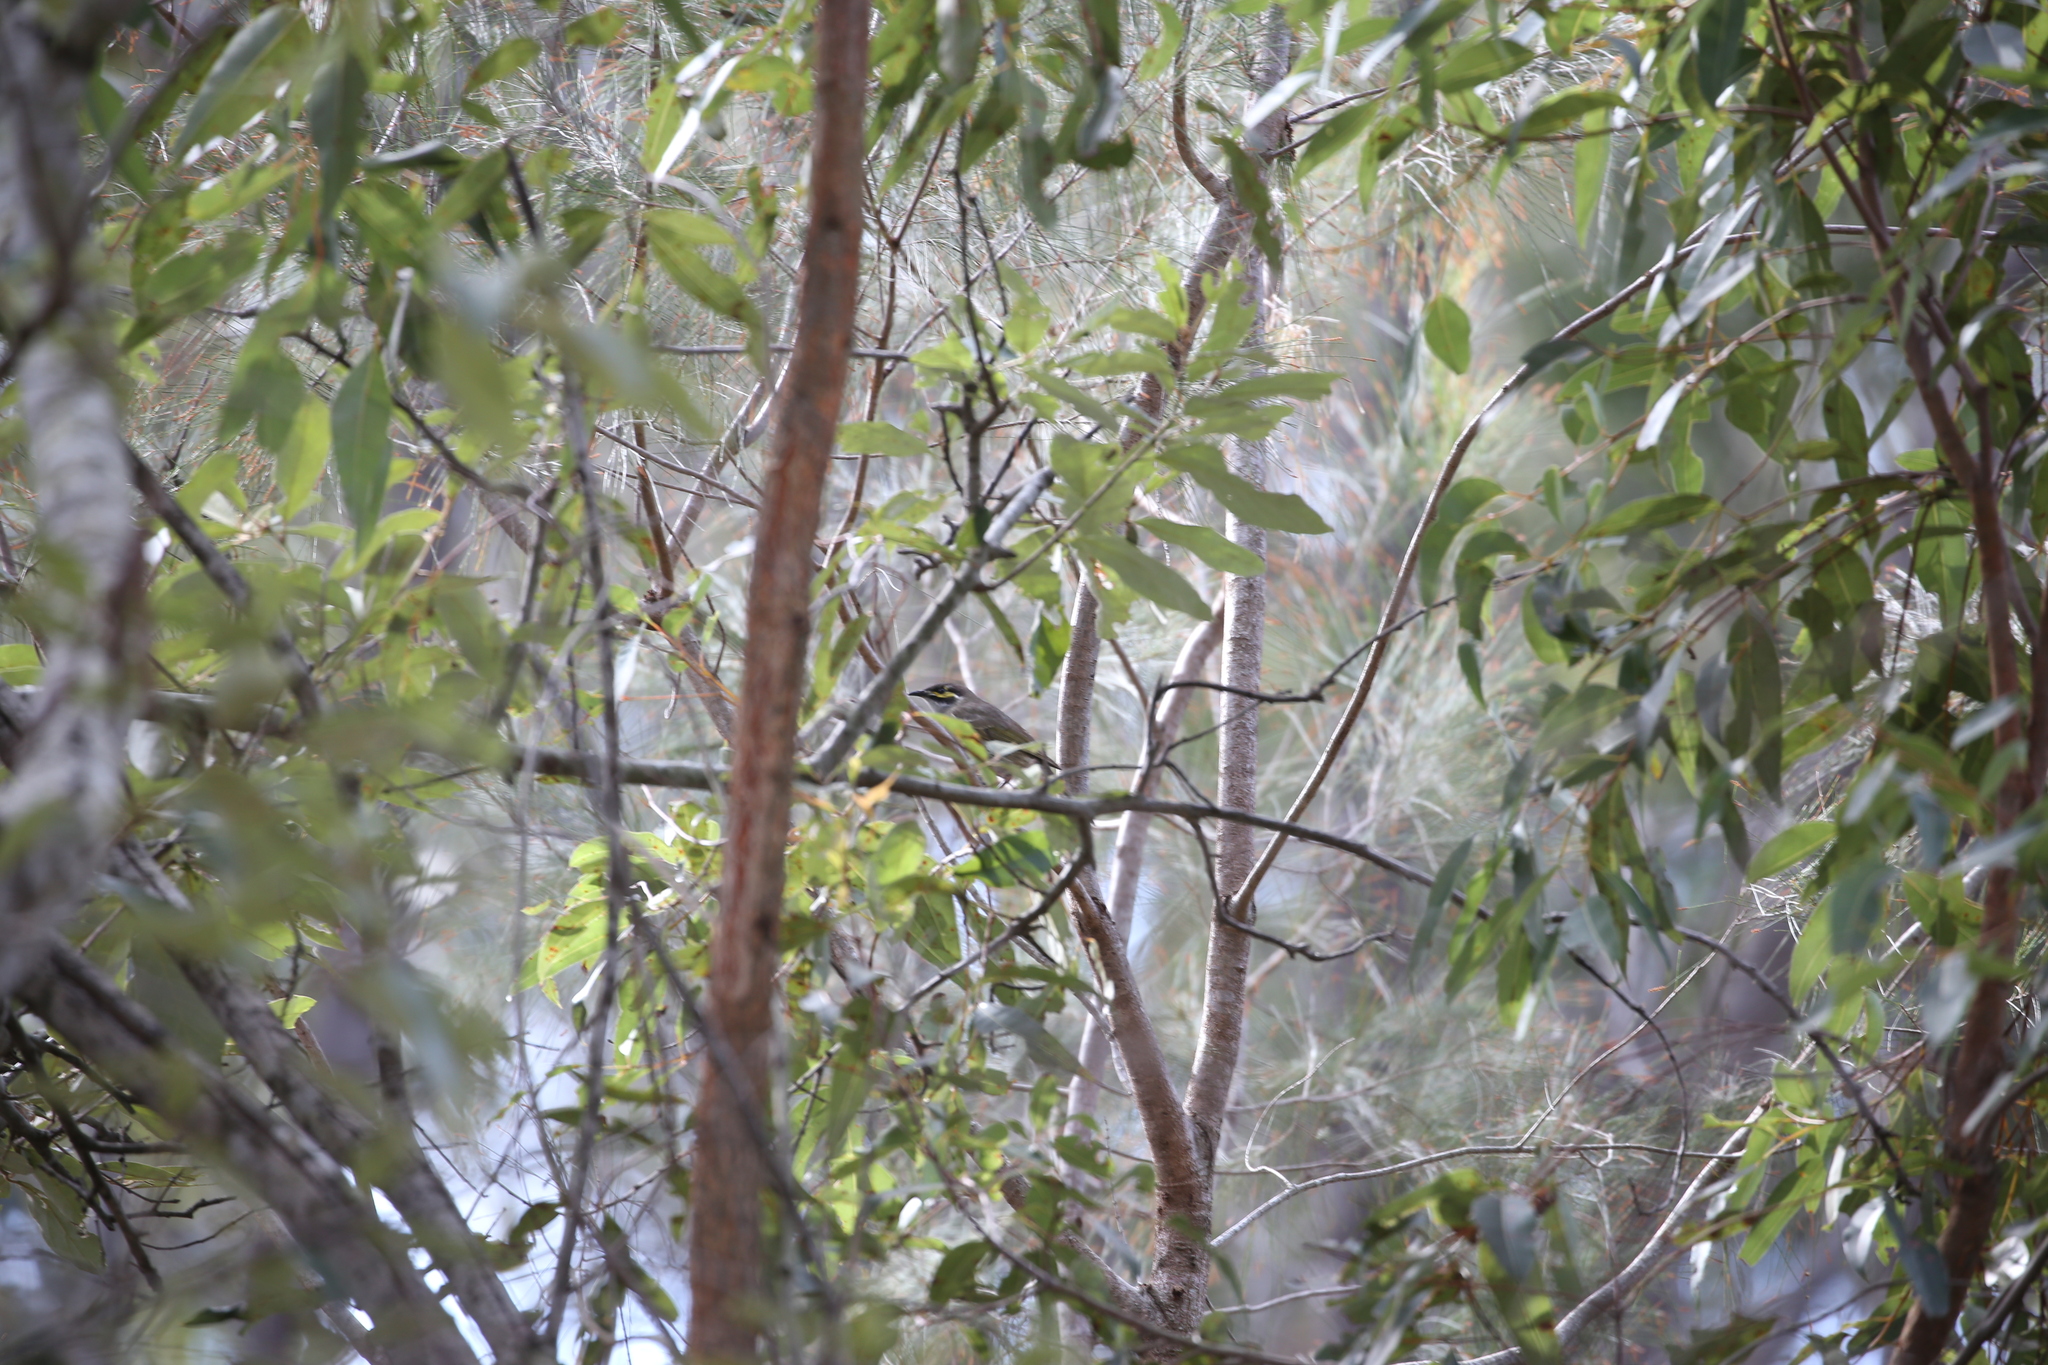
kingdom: Animalia
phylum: Chordata
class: Aves
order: Passeriformes
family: Meliphagidae
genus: Caligavis
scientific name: Caligavis chrysops
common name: Yellow-faced honeyeater
